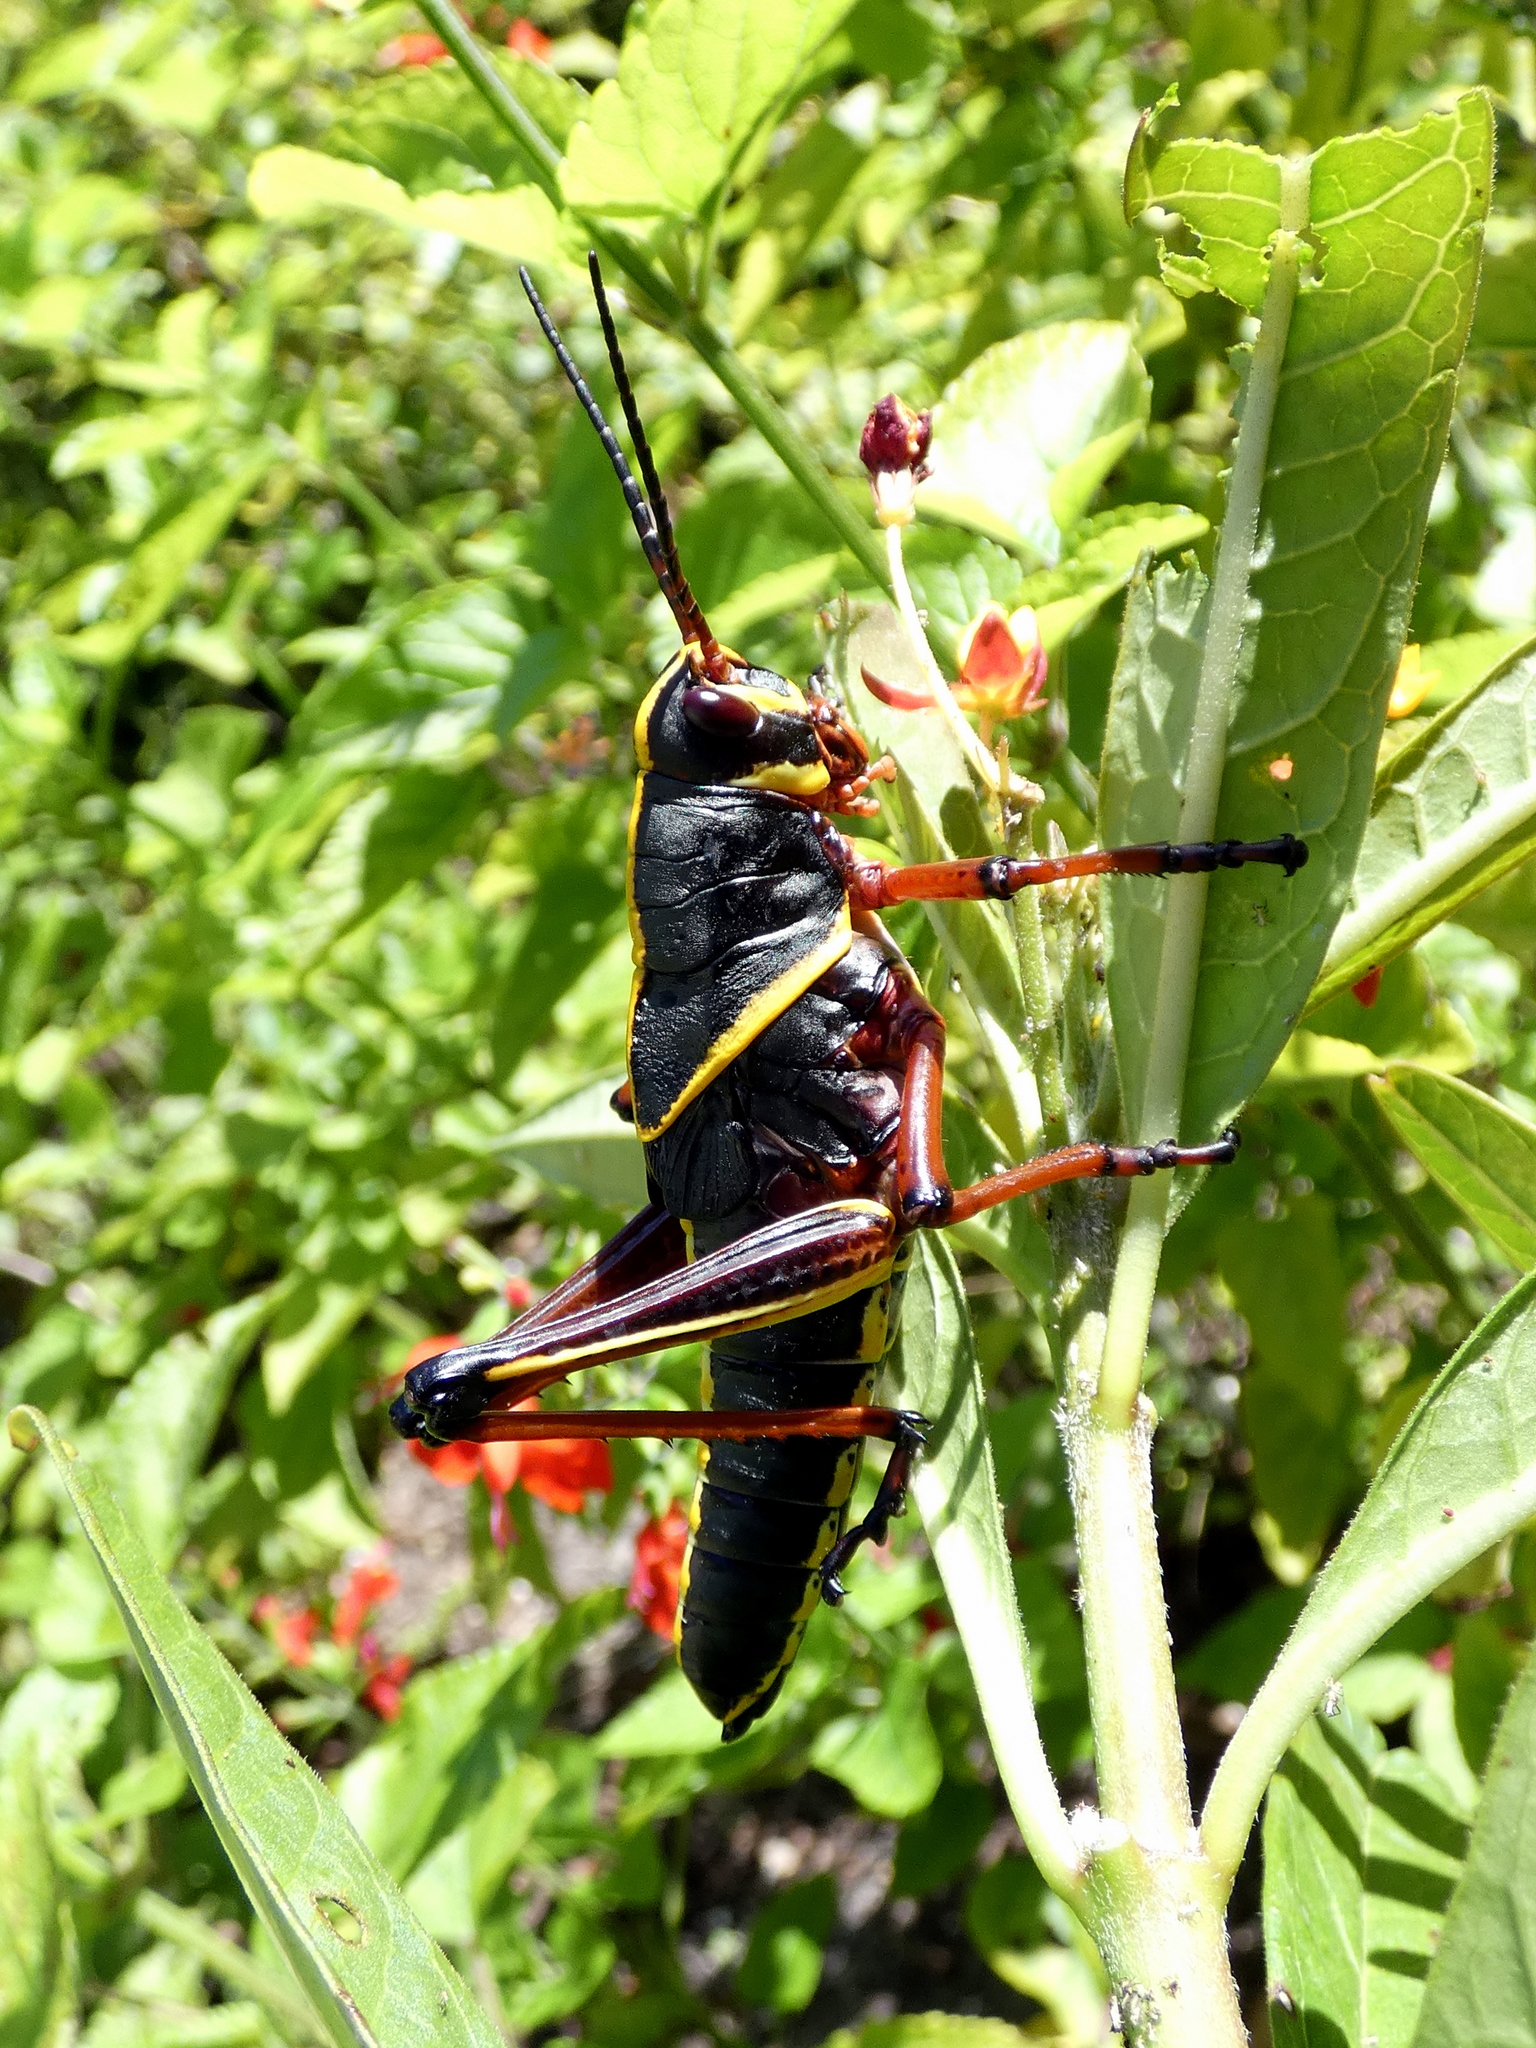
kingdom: Animalia
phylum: Arthropoda
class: Insecta
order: Orthoptera
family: Romaleidae
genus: Romalea
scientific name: Romalea microptera
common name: Eastern lubber grasshopper
